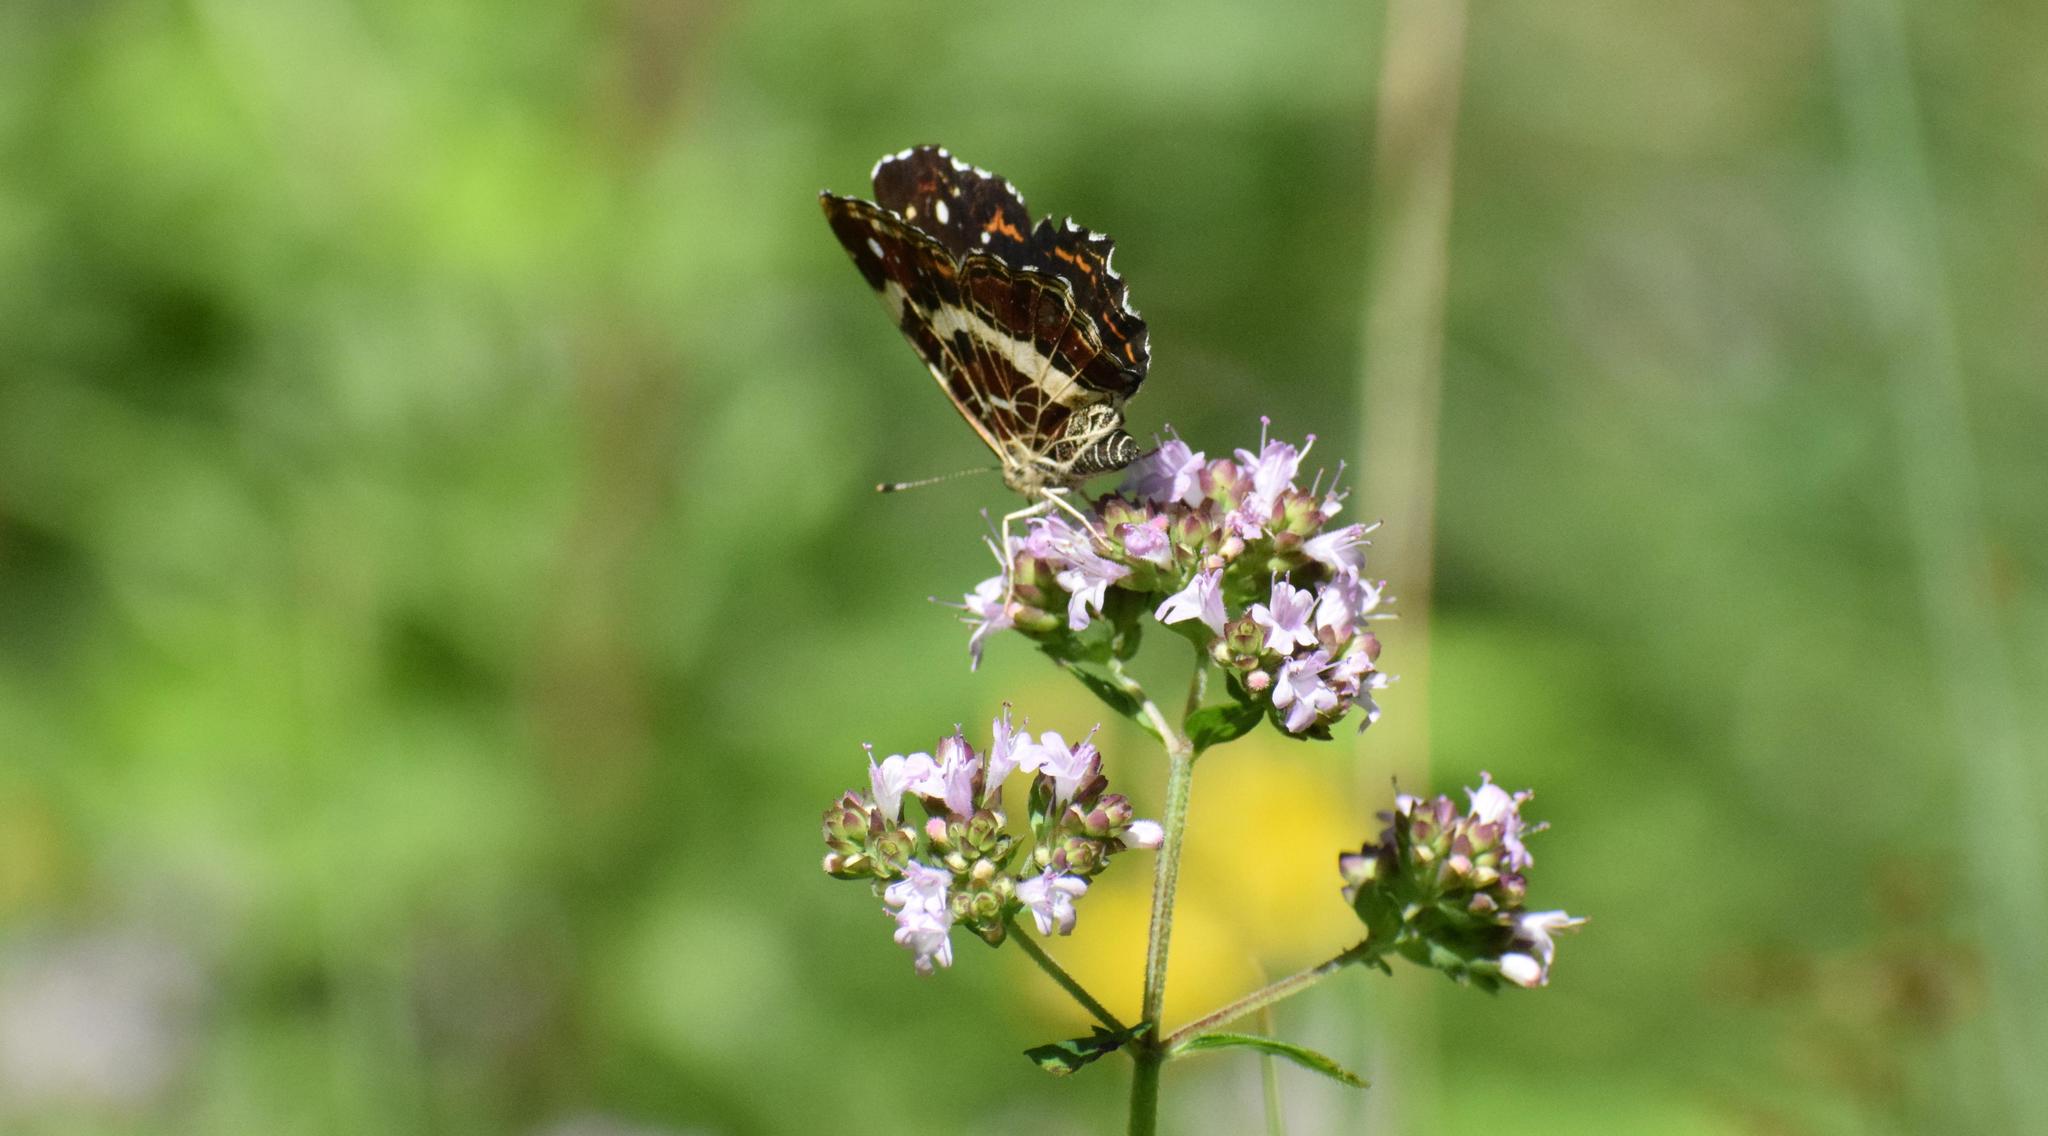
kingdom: Animalia
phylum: Arthropoda
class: Insecta
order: Lepidoptera
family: Nymphalidae
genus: Araschnia
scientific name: Araschnia levana
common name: Map butterfly
